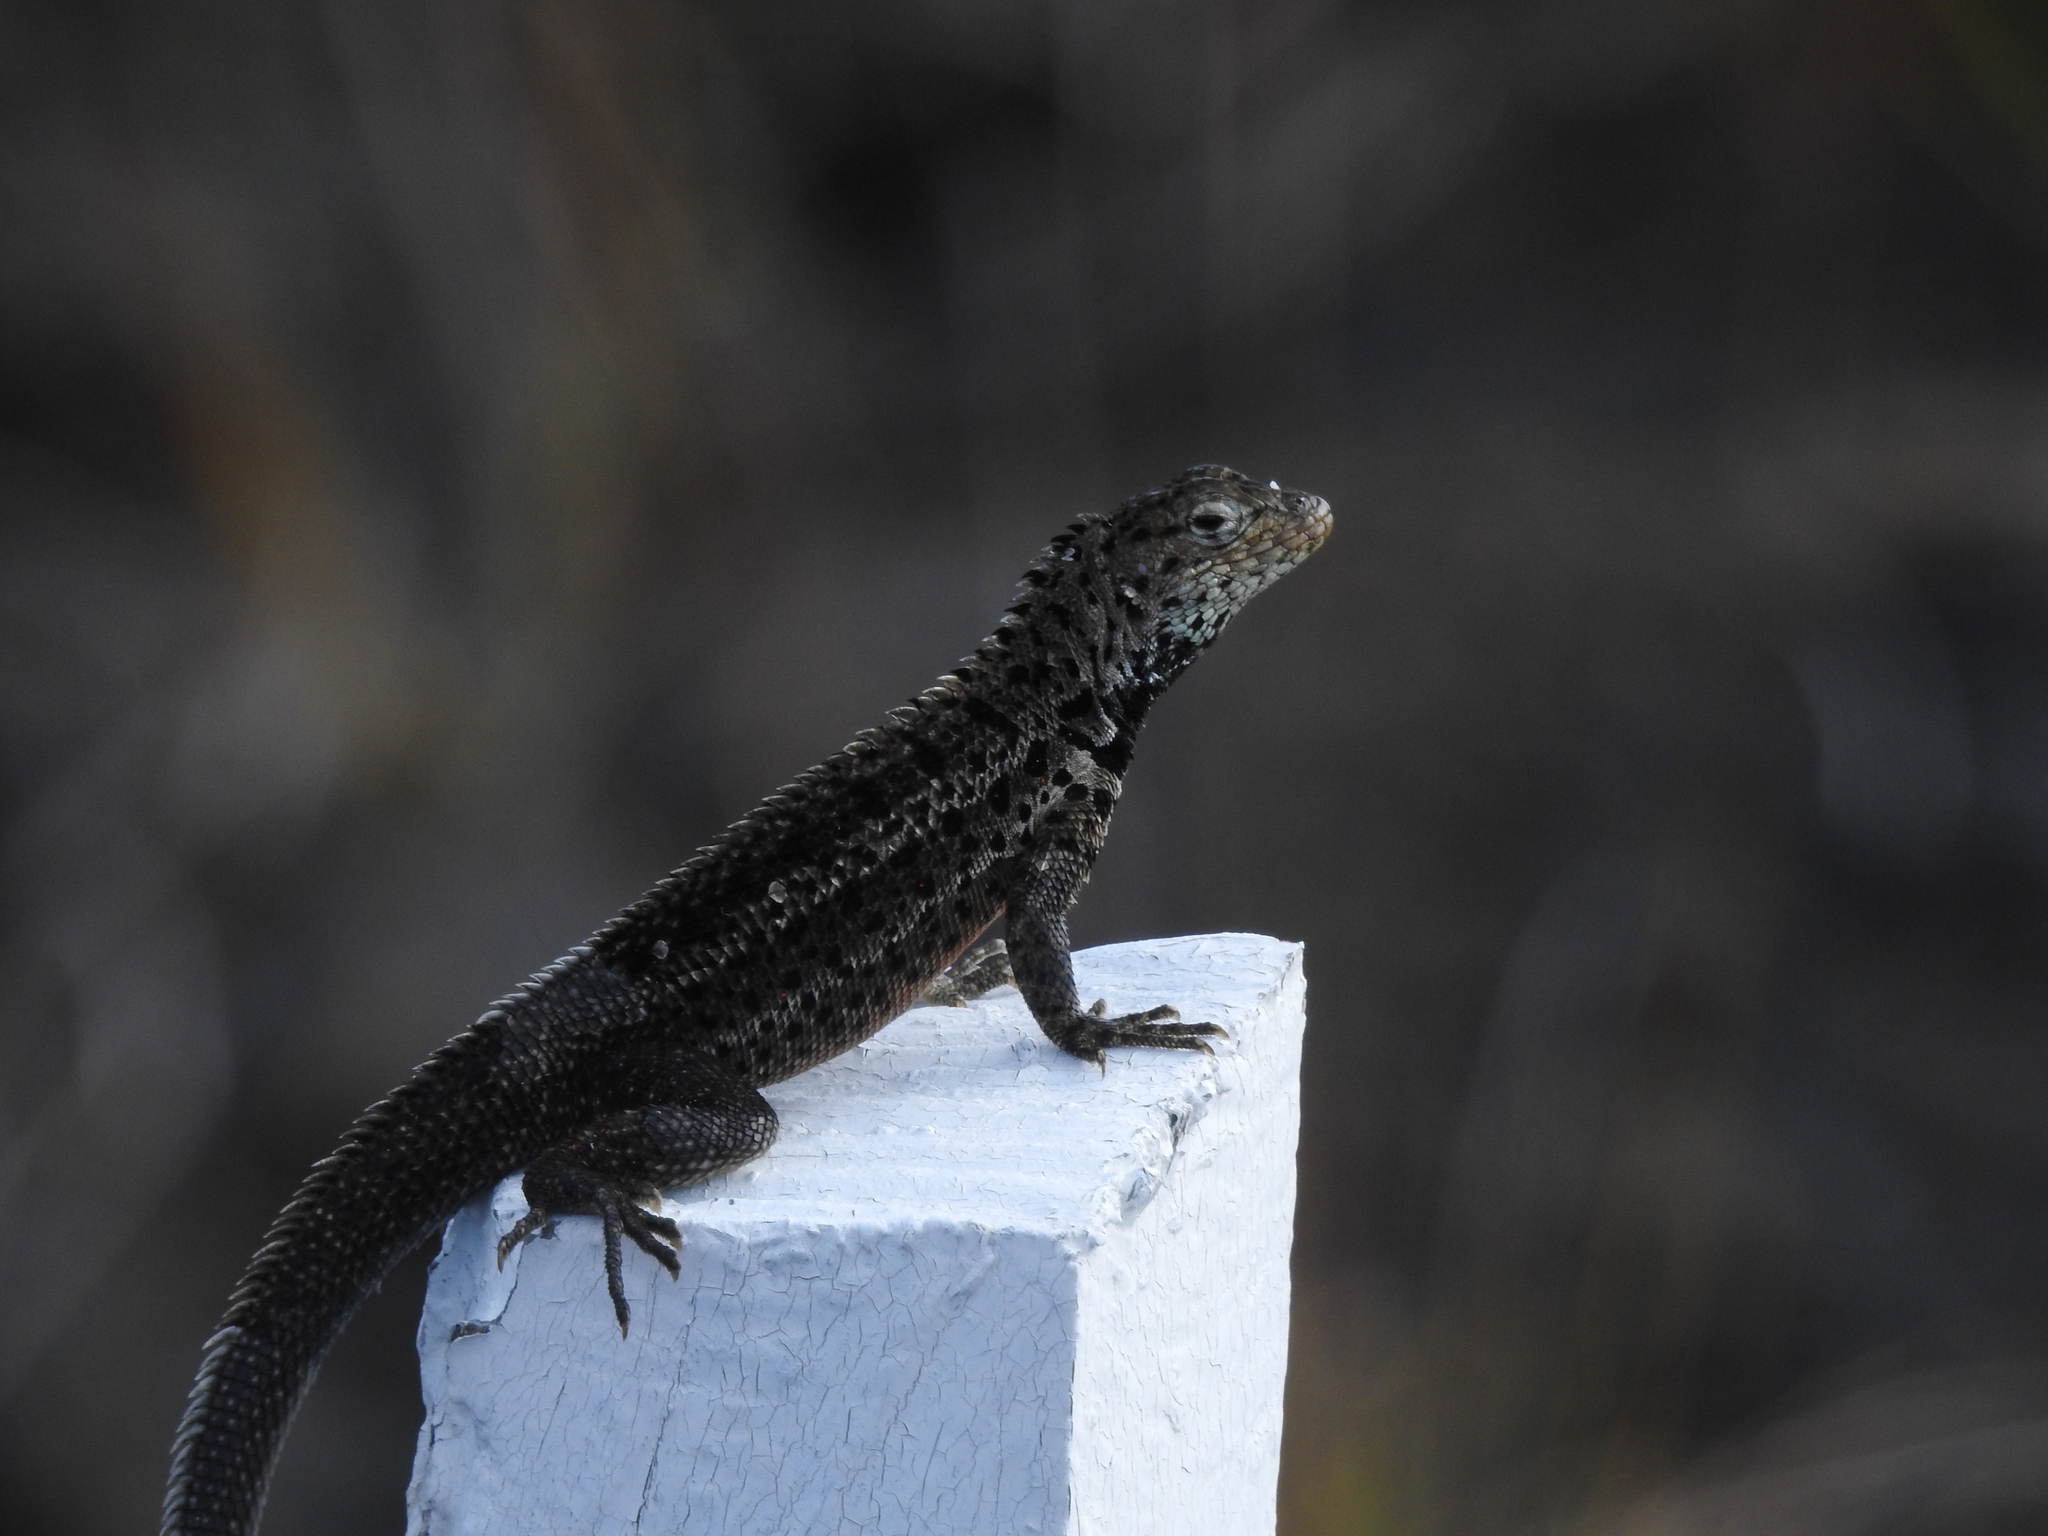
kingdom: Animalia
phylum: Chordata
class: Squamata
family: Tropiduridae
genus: Microlophus
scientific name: Microlophus albemarlensis
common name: Galapagos lava lizard
